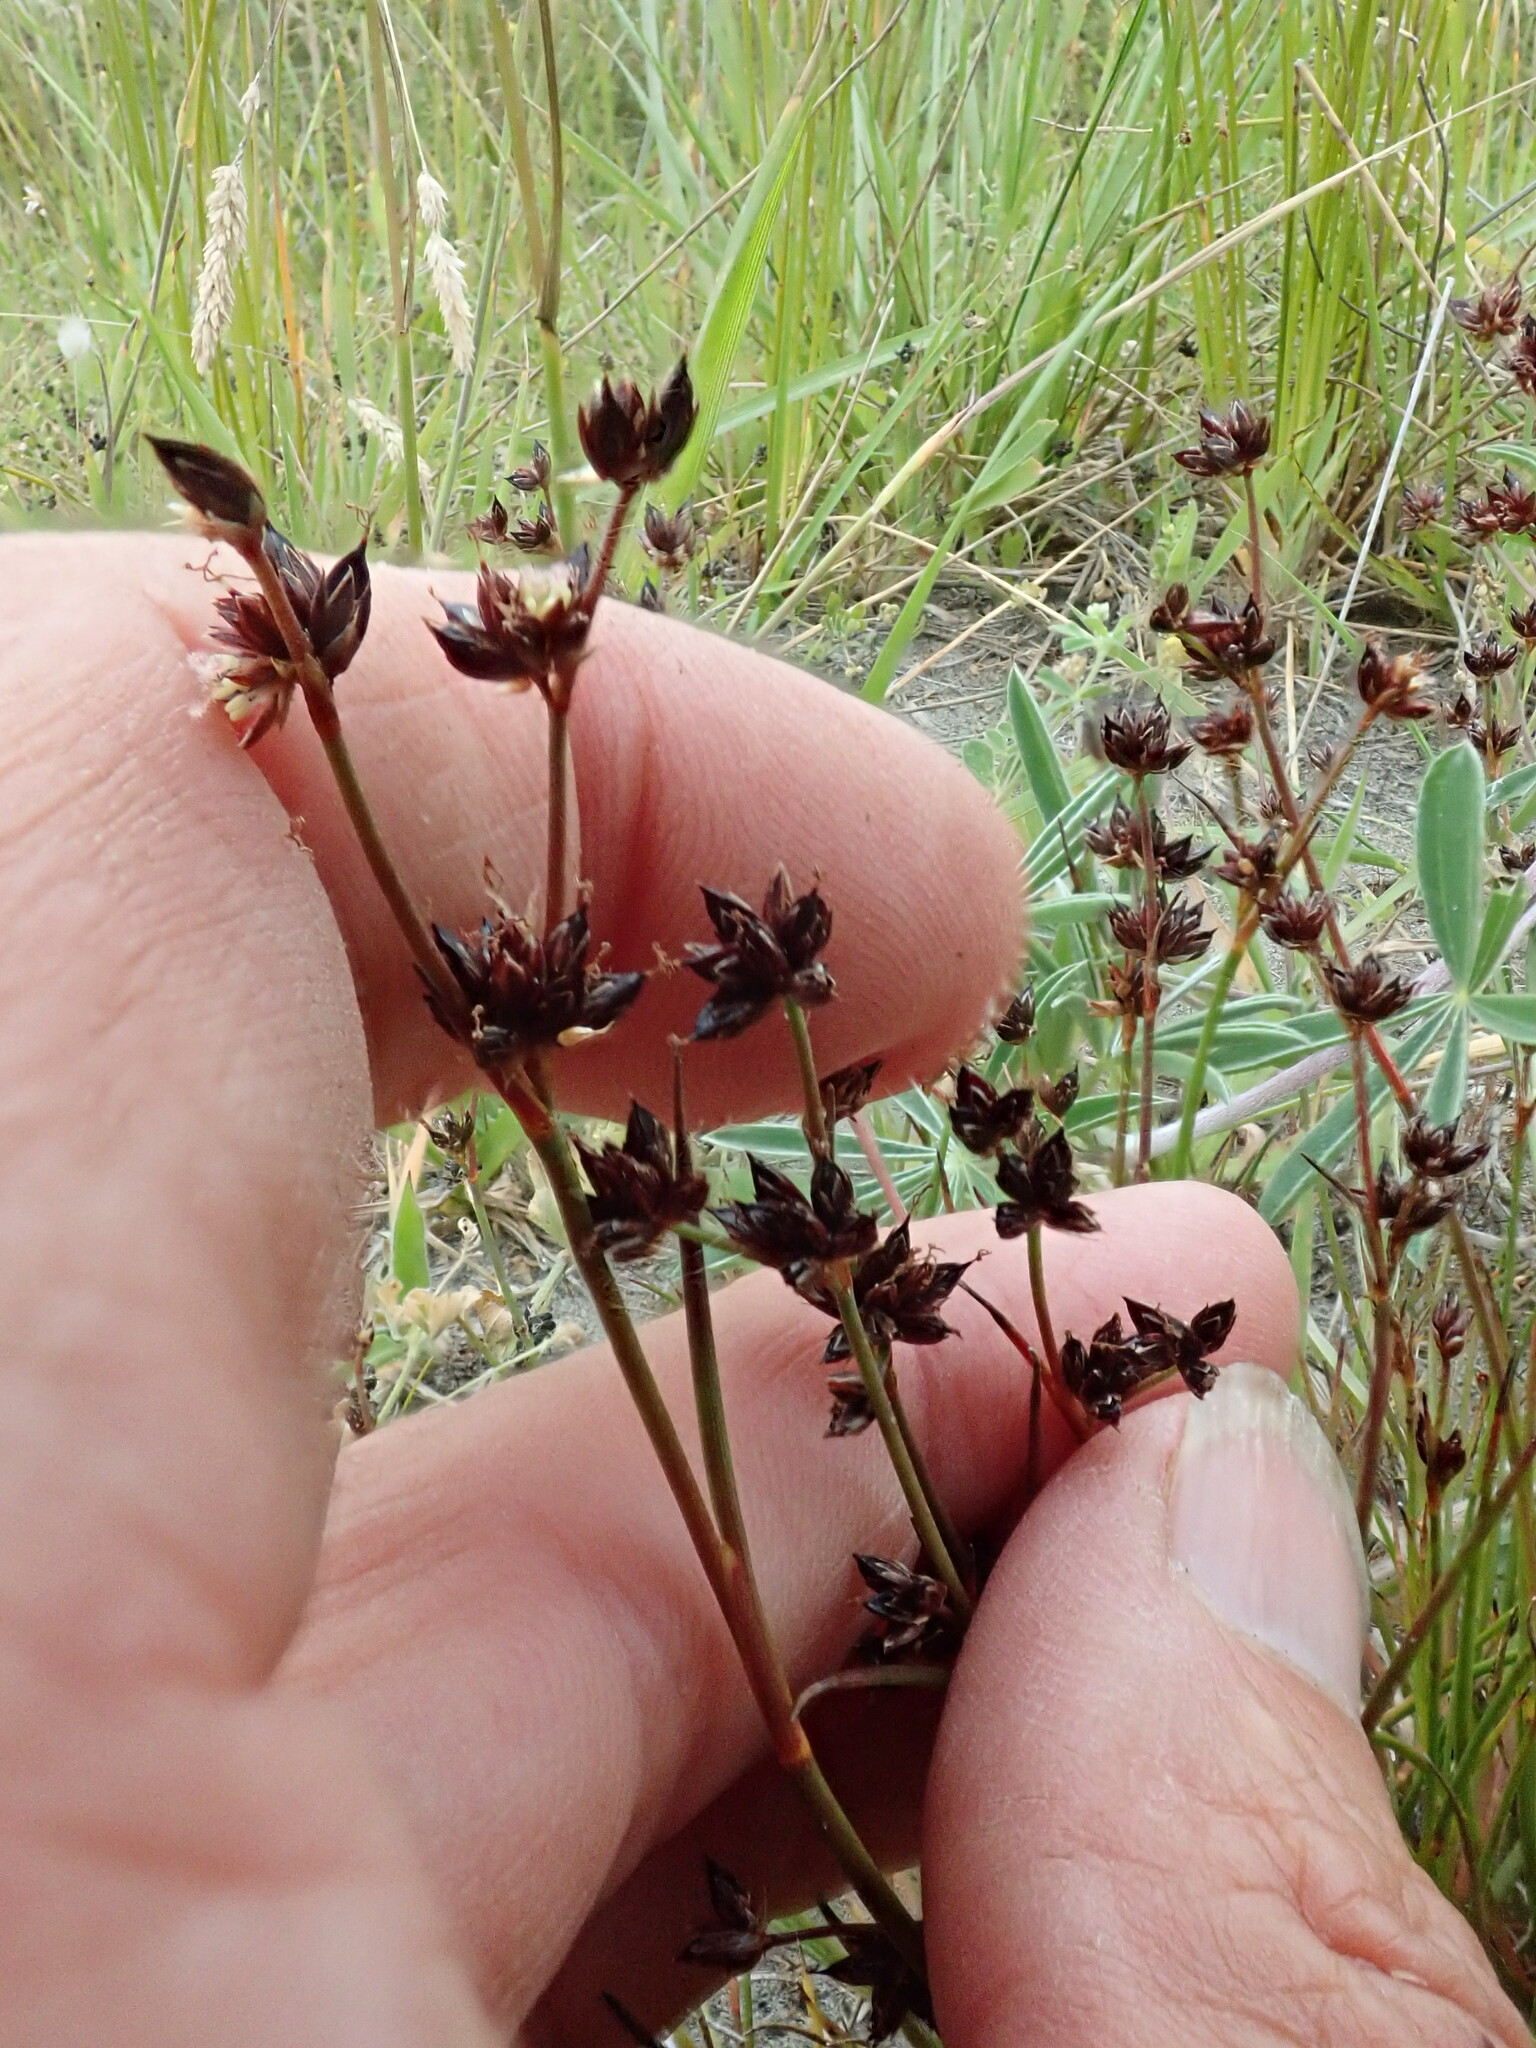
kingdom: Plantae
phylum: Tracheophyta
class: Liliopsida
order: Poales
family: Juncaceae
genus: Juncus
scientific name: Juncus articulatus
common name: Jointed rush
